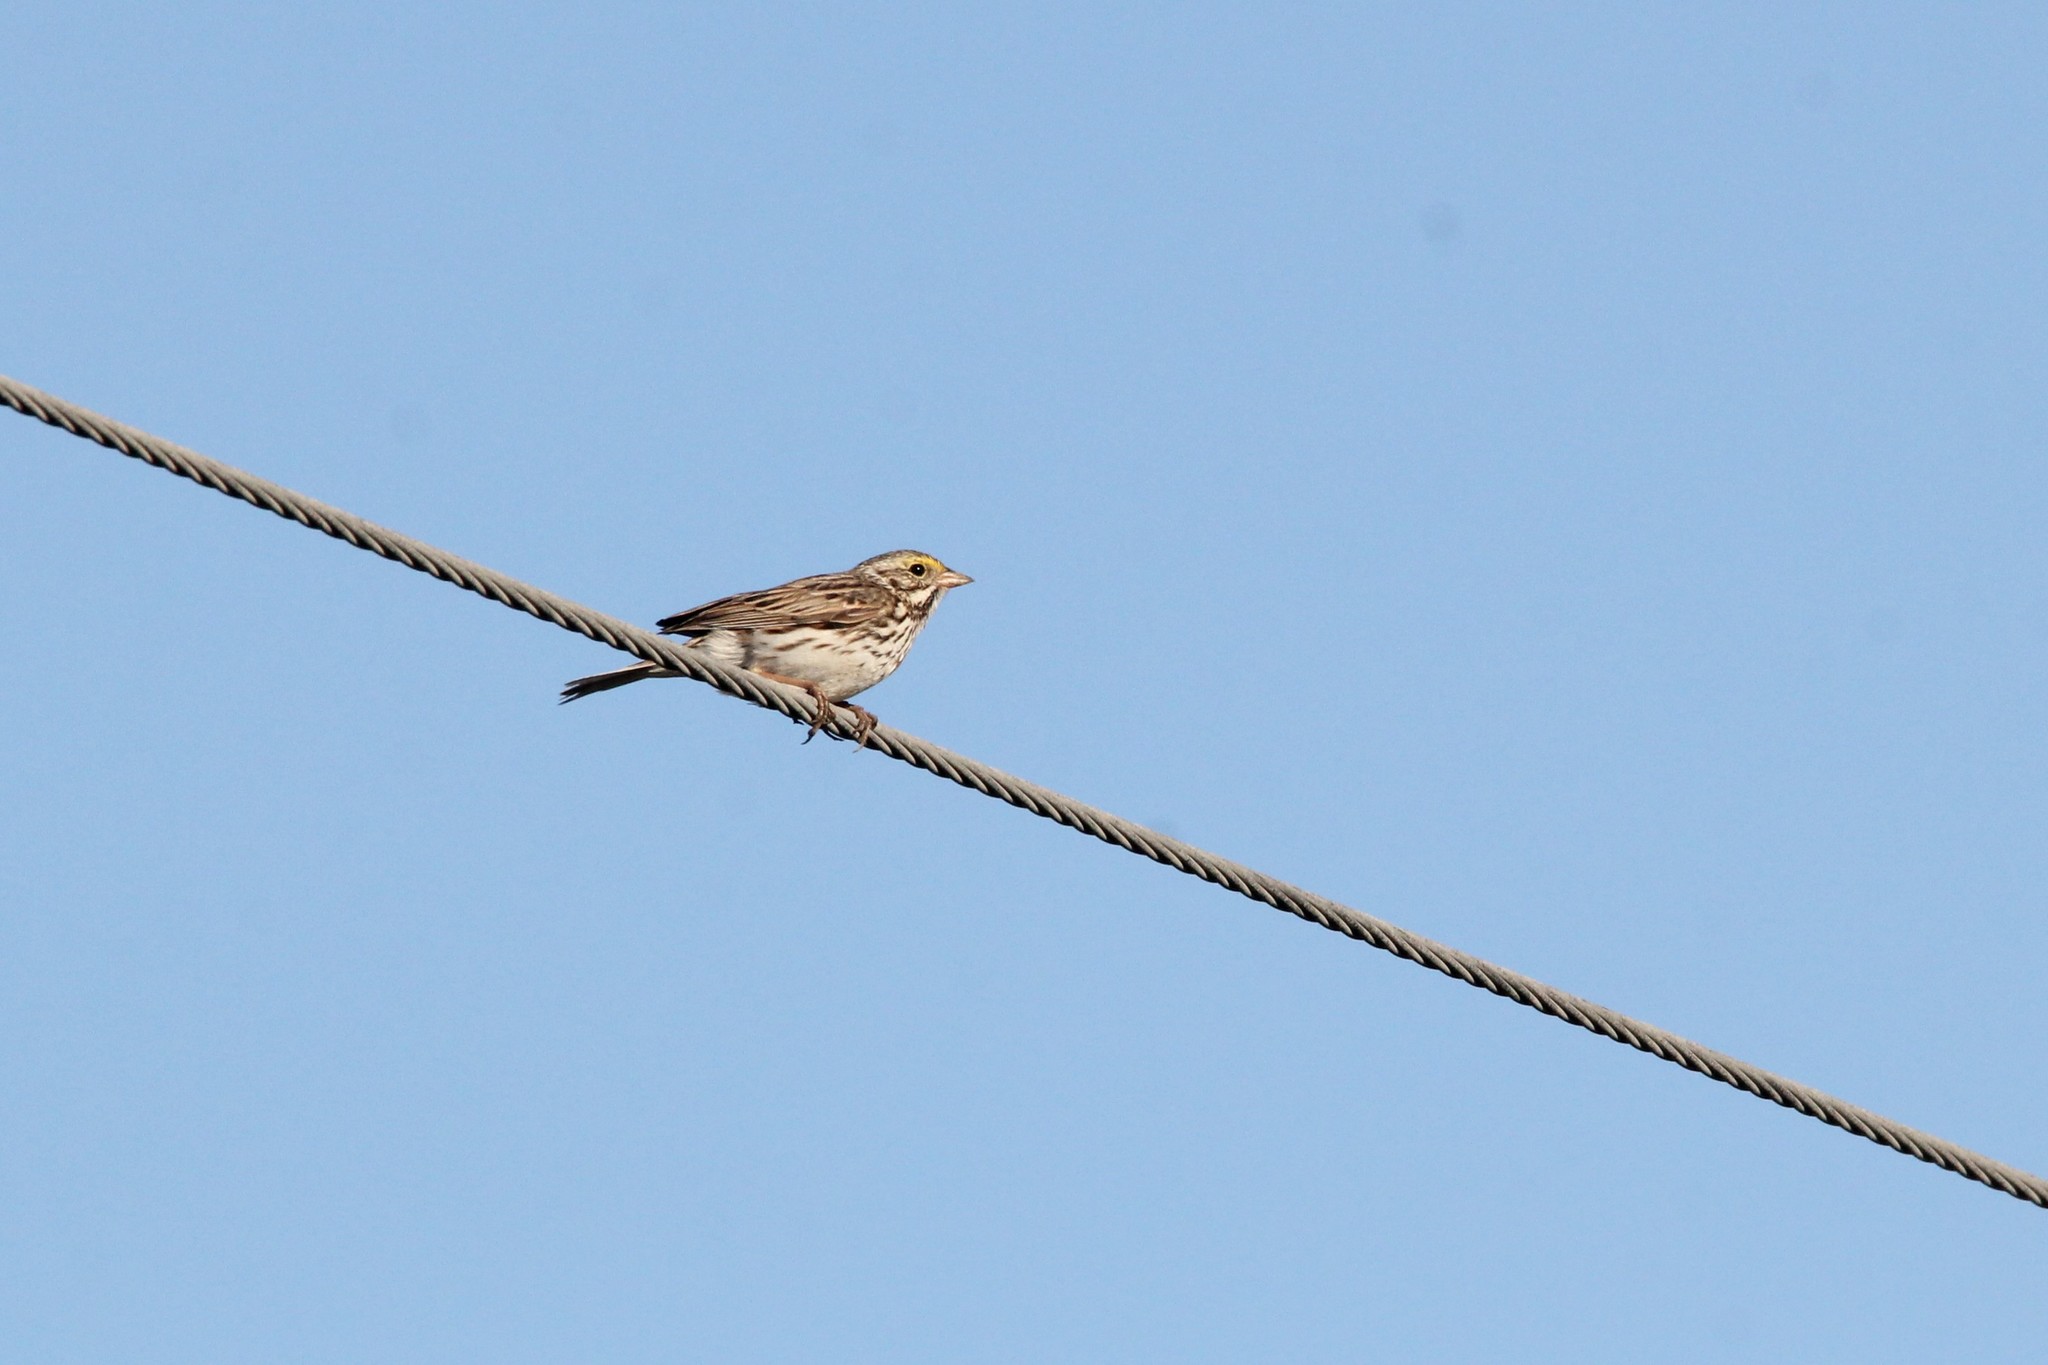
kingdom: Animalia
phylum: Chordata
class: Aves
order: Passeriformes
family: Passerellidae
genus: Passerculus
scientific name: Passerculus sandwichensis
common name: Savannah sparrow
